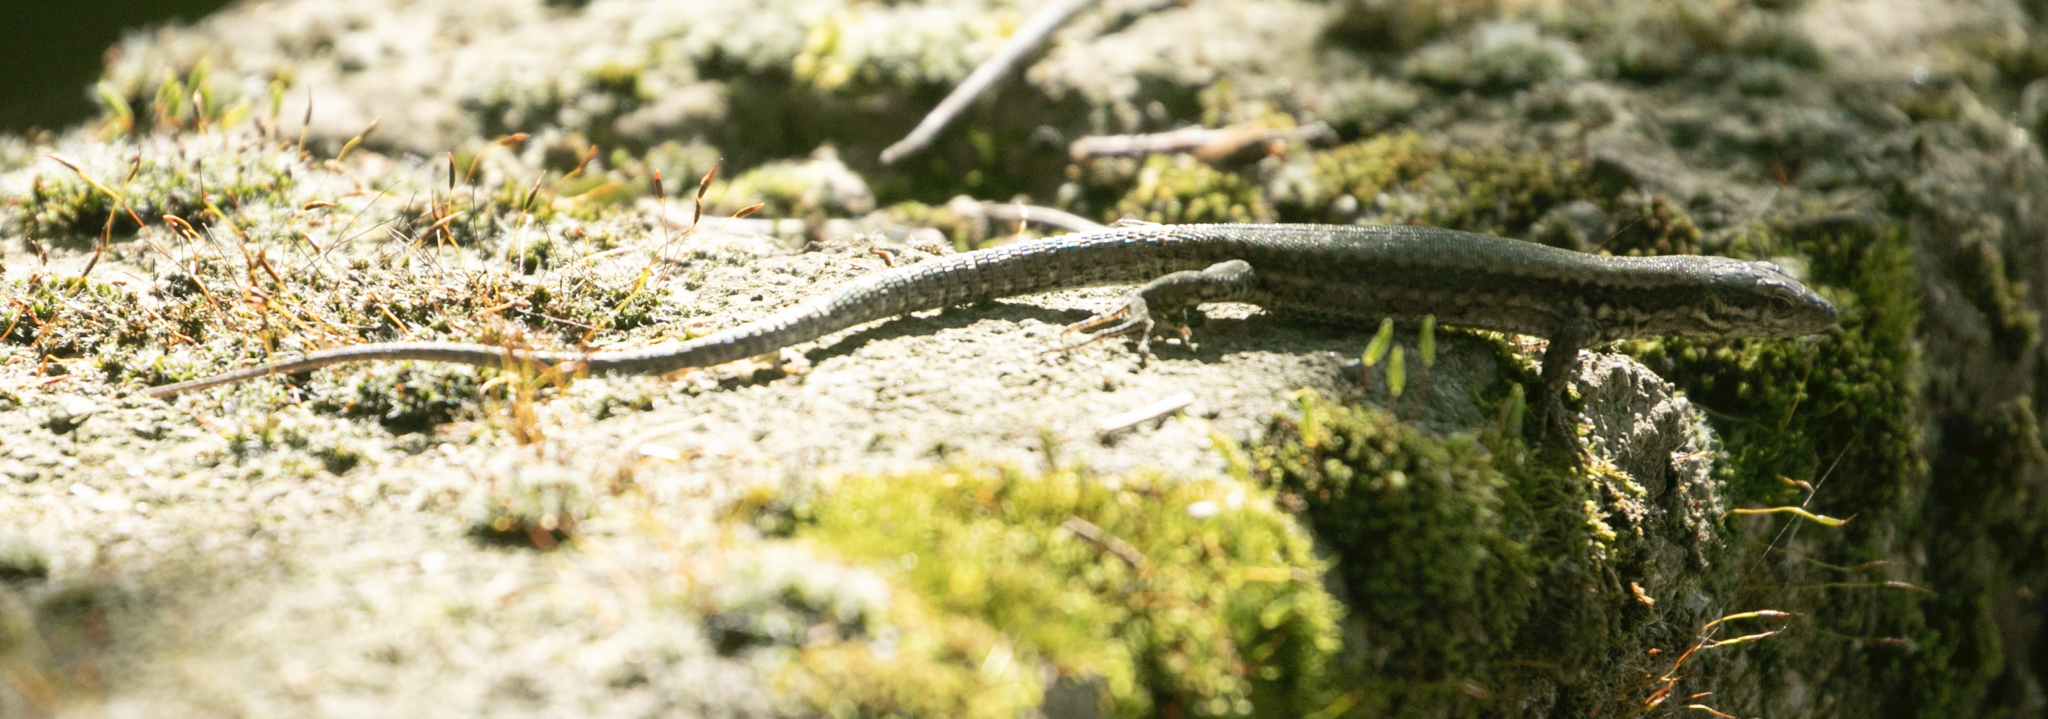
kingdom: Animalia
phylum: Chordata
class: Squamata
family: Lacertidae
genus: Podarcis
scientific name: Podarcis muralis
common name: Common wall lizard
